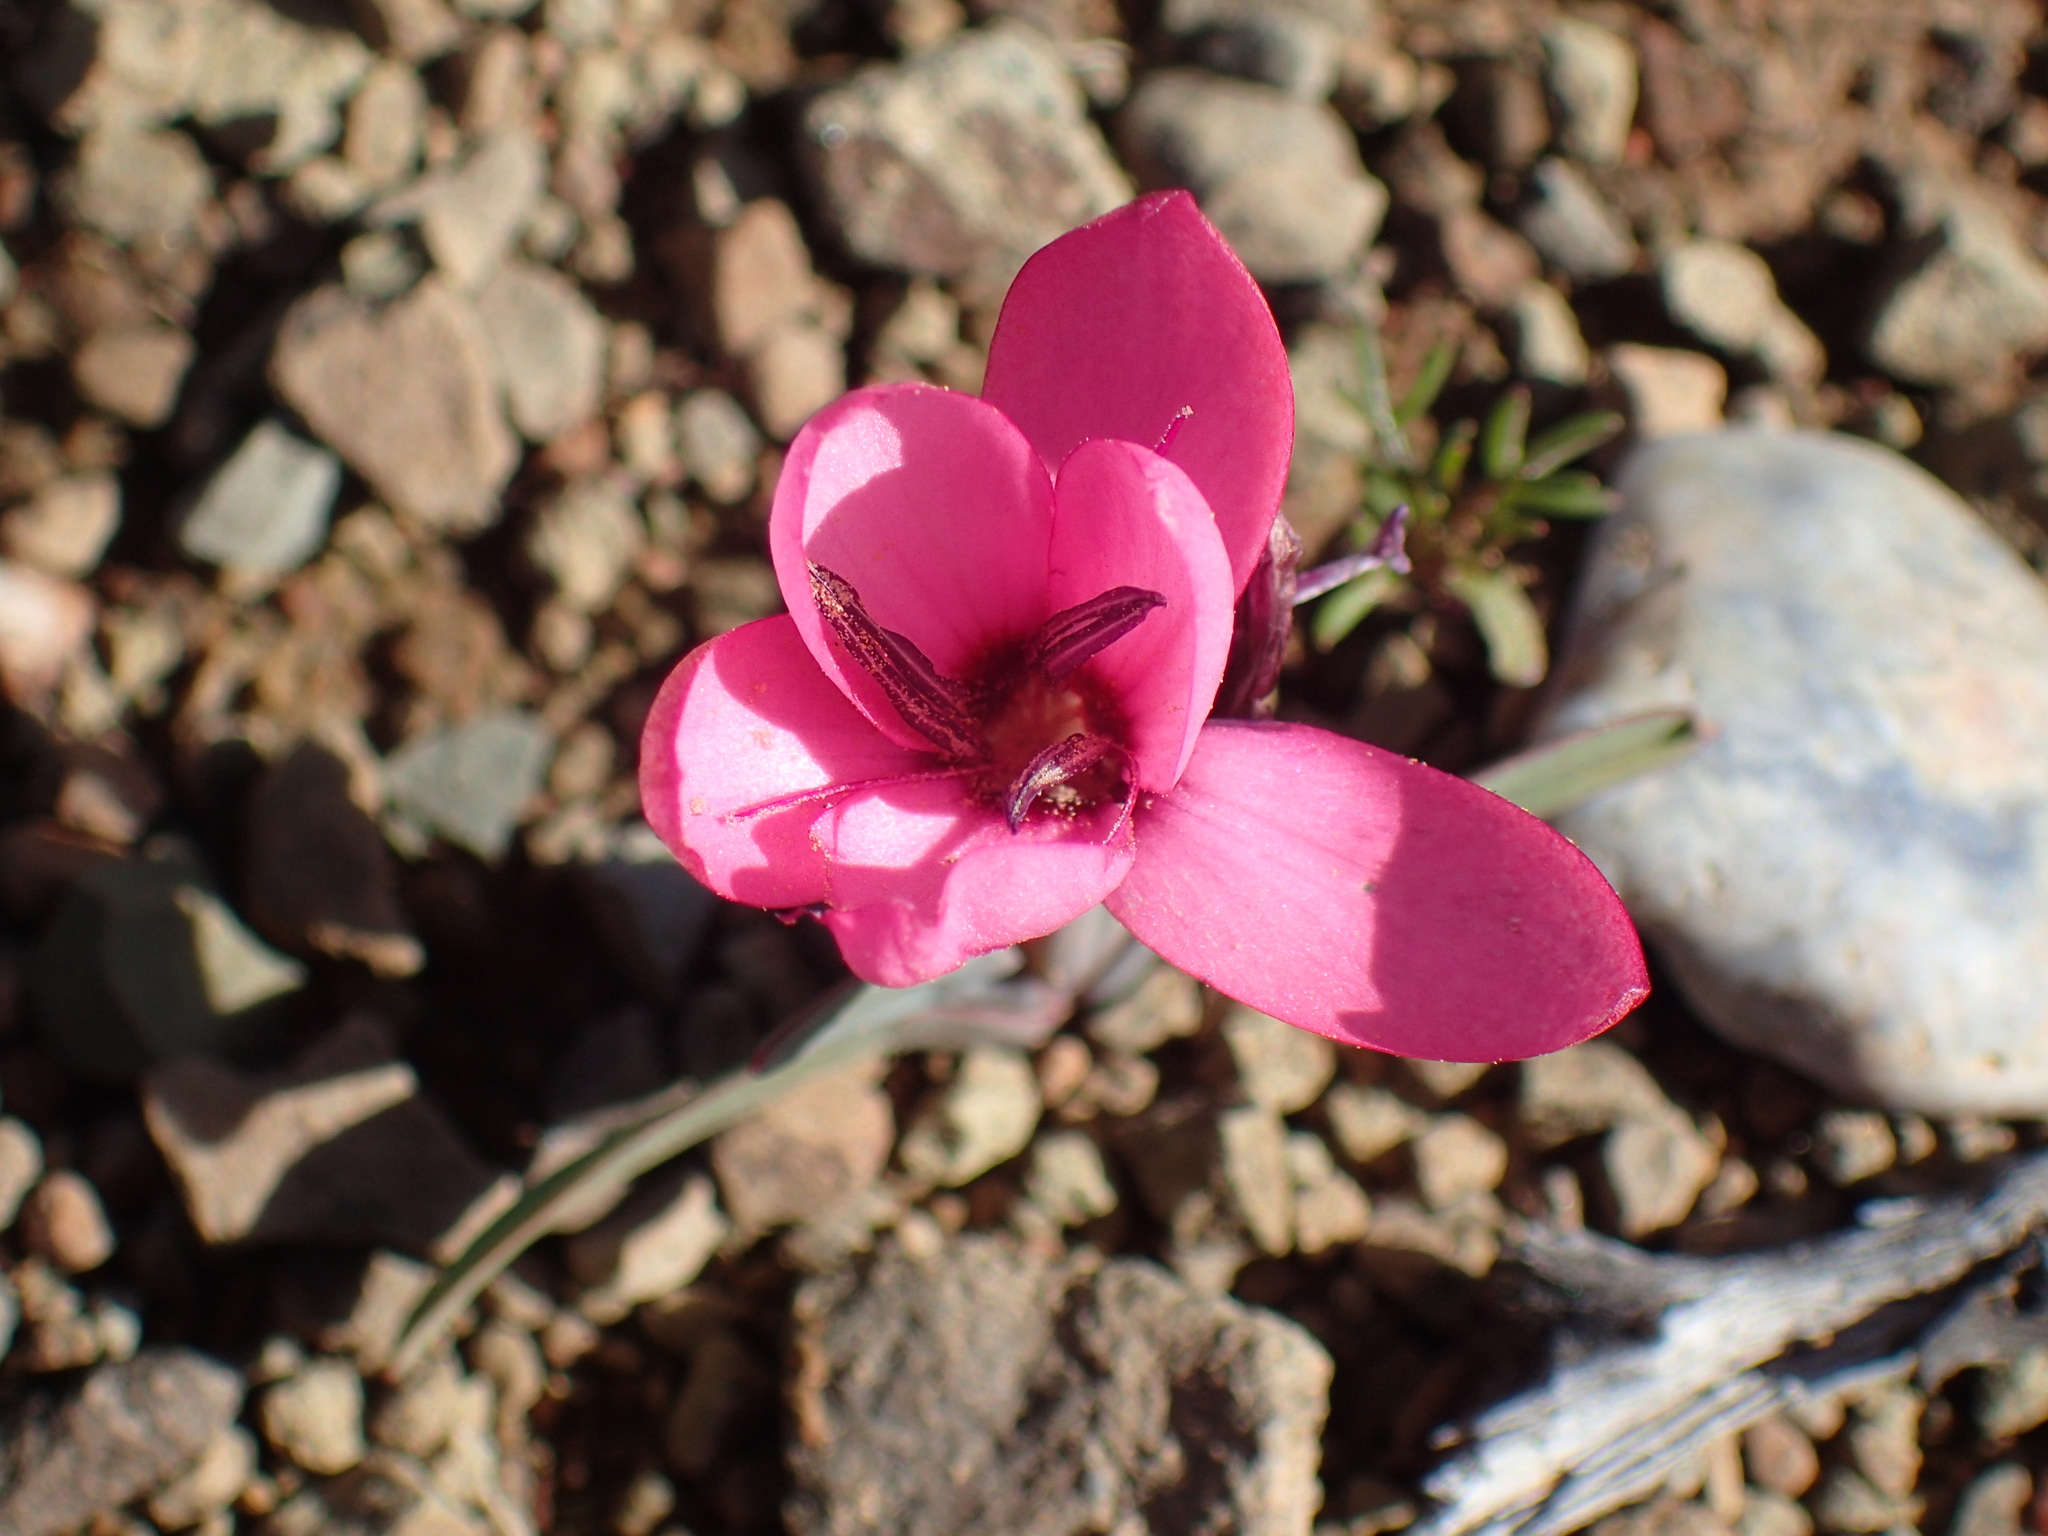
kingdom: Plantae
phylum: Tracheophyta
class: Liliopsida
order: Asparagales
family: Iridaceae
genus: Hesperantha
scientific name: Hesperantha humilis
